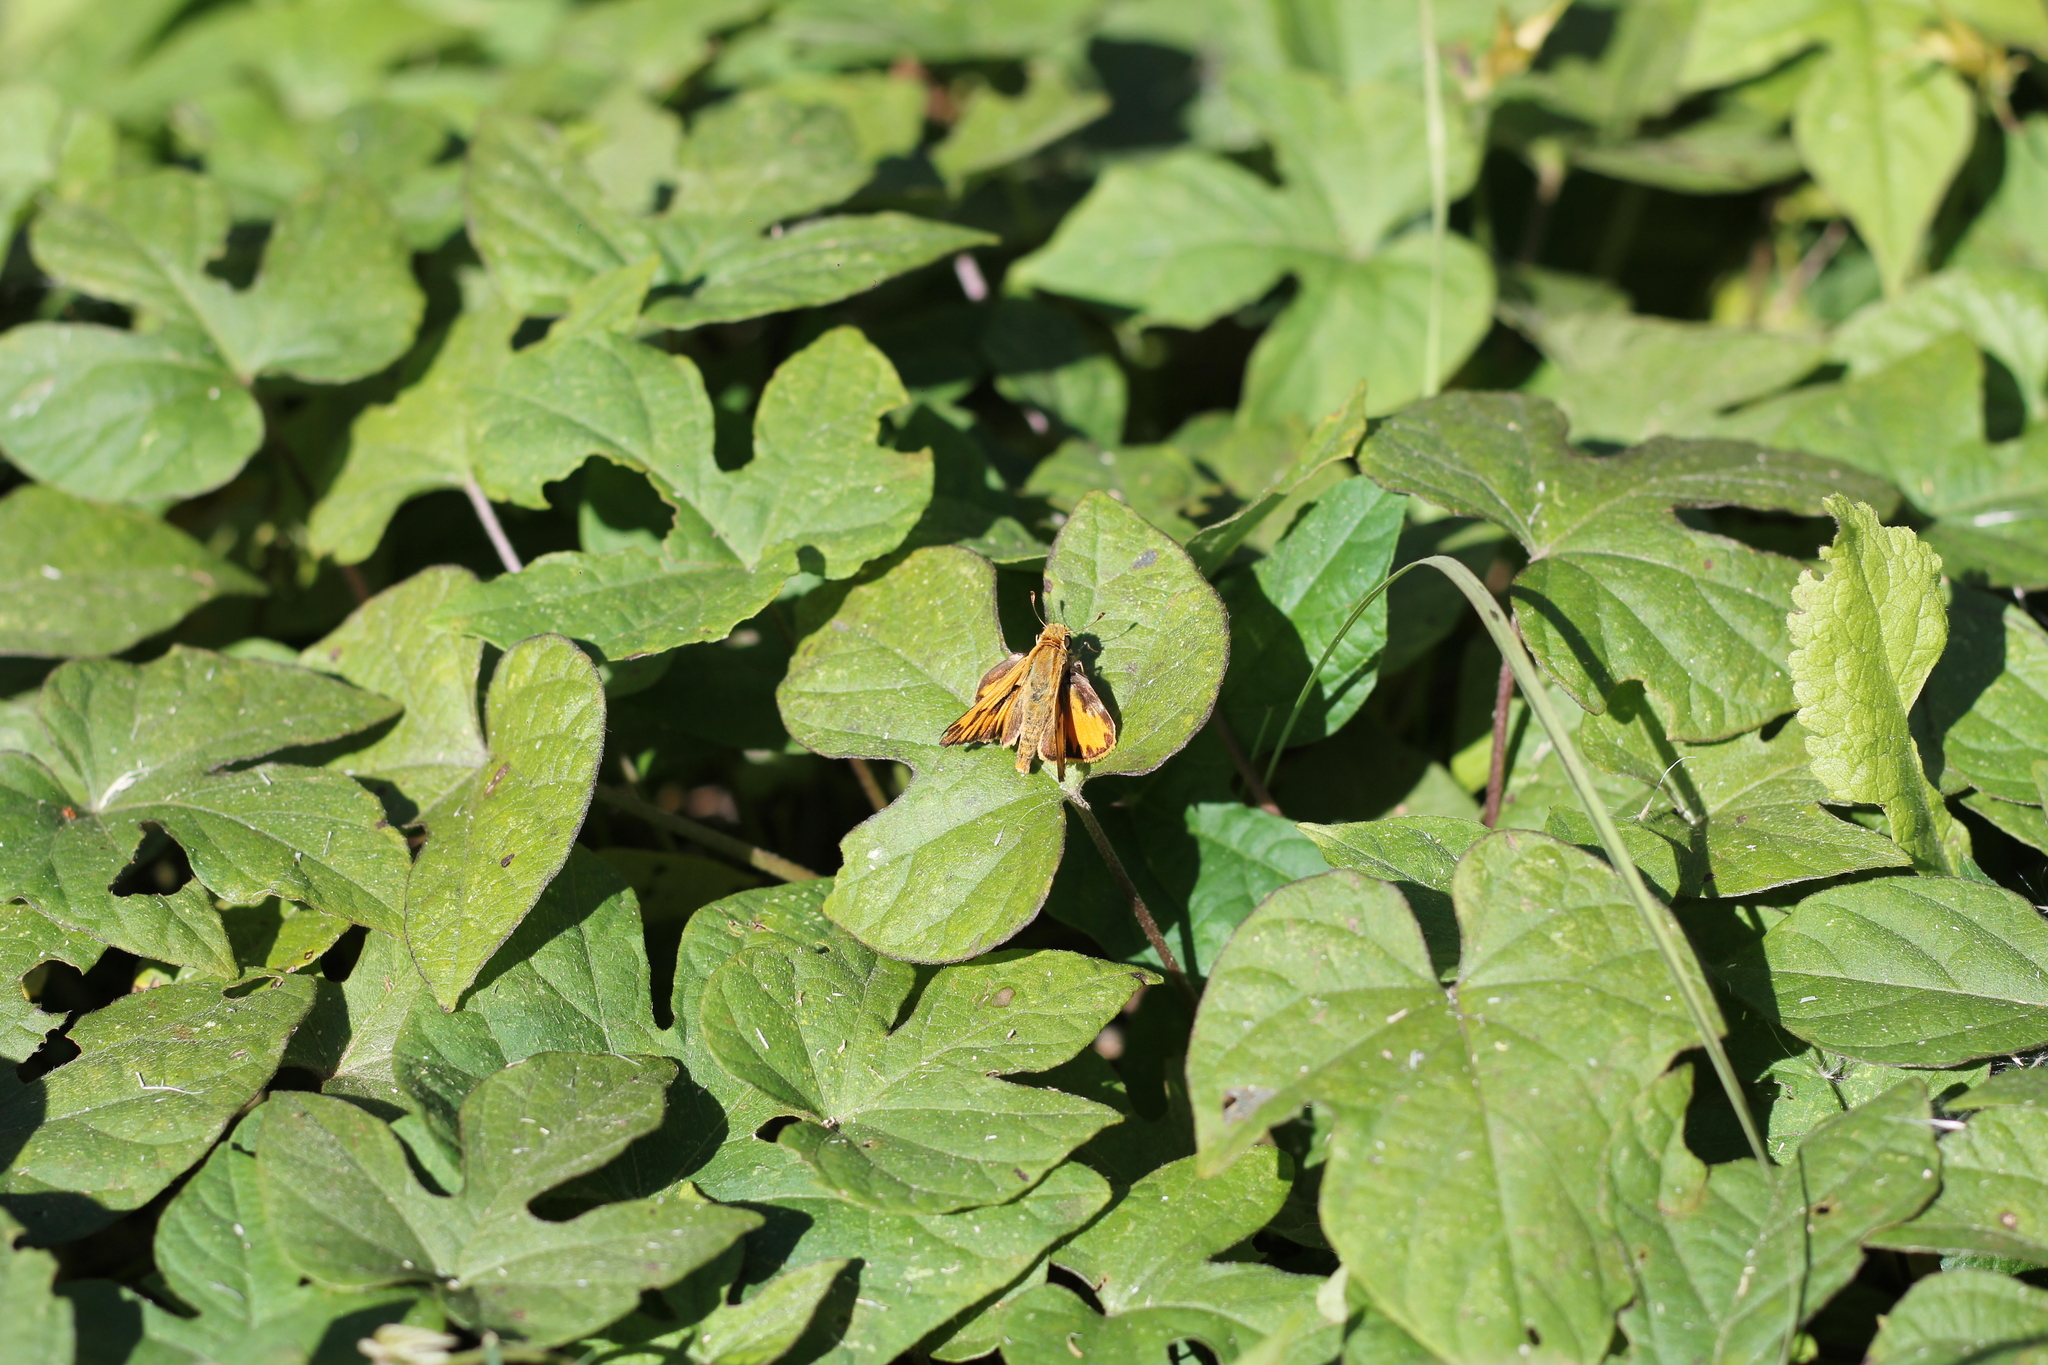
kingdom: Animalia
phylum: Arthropoda
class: Insecta
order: Lepidoptera
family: Hesperiidae
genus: Hylephila
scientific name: Hylephila phyleus
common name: Fiery skipper
